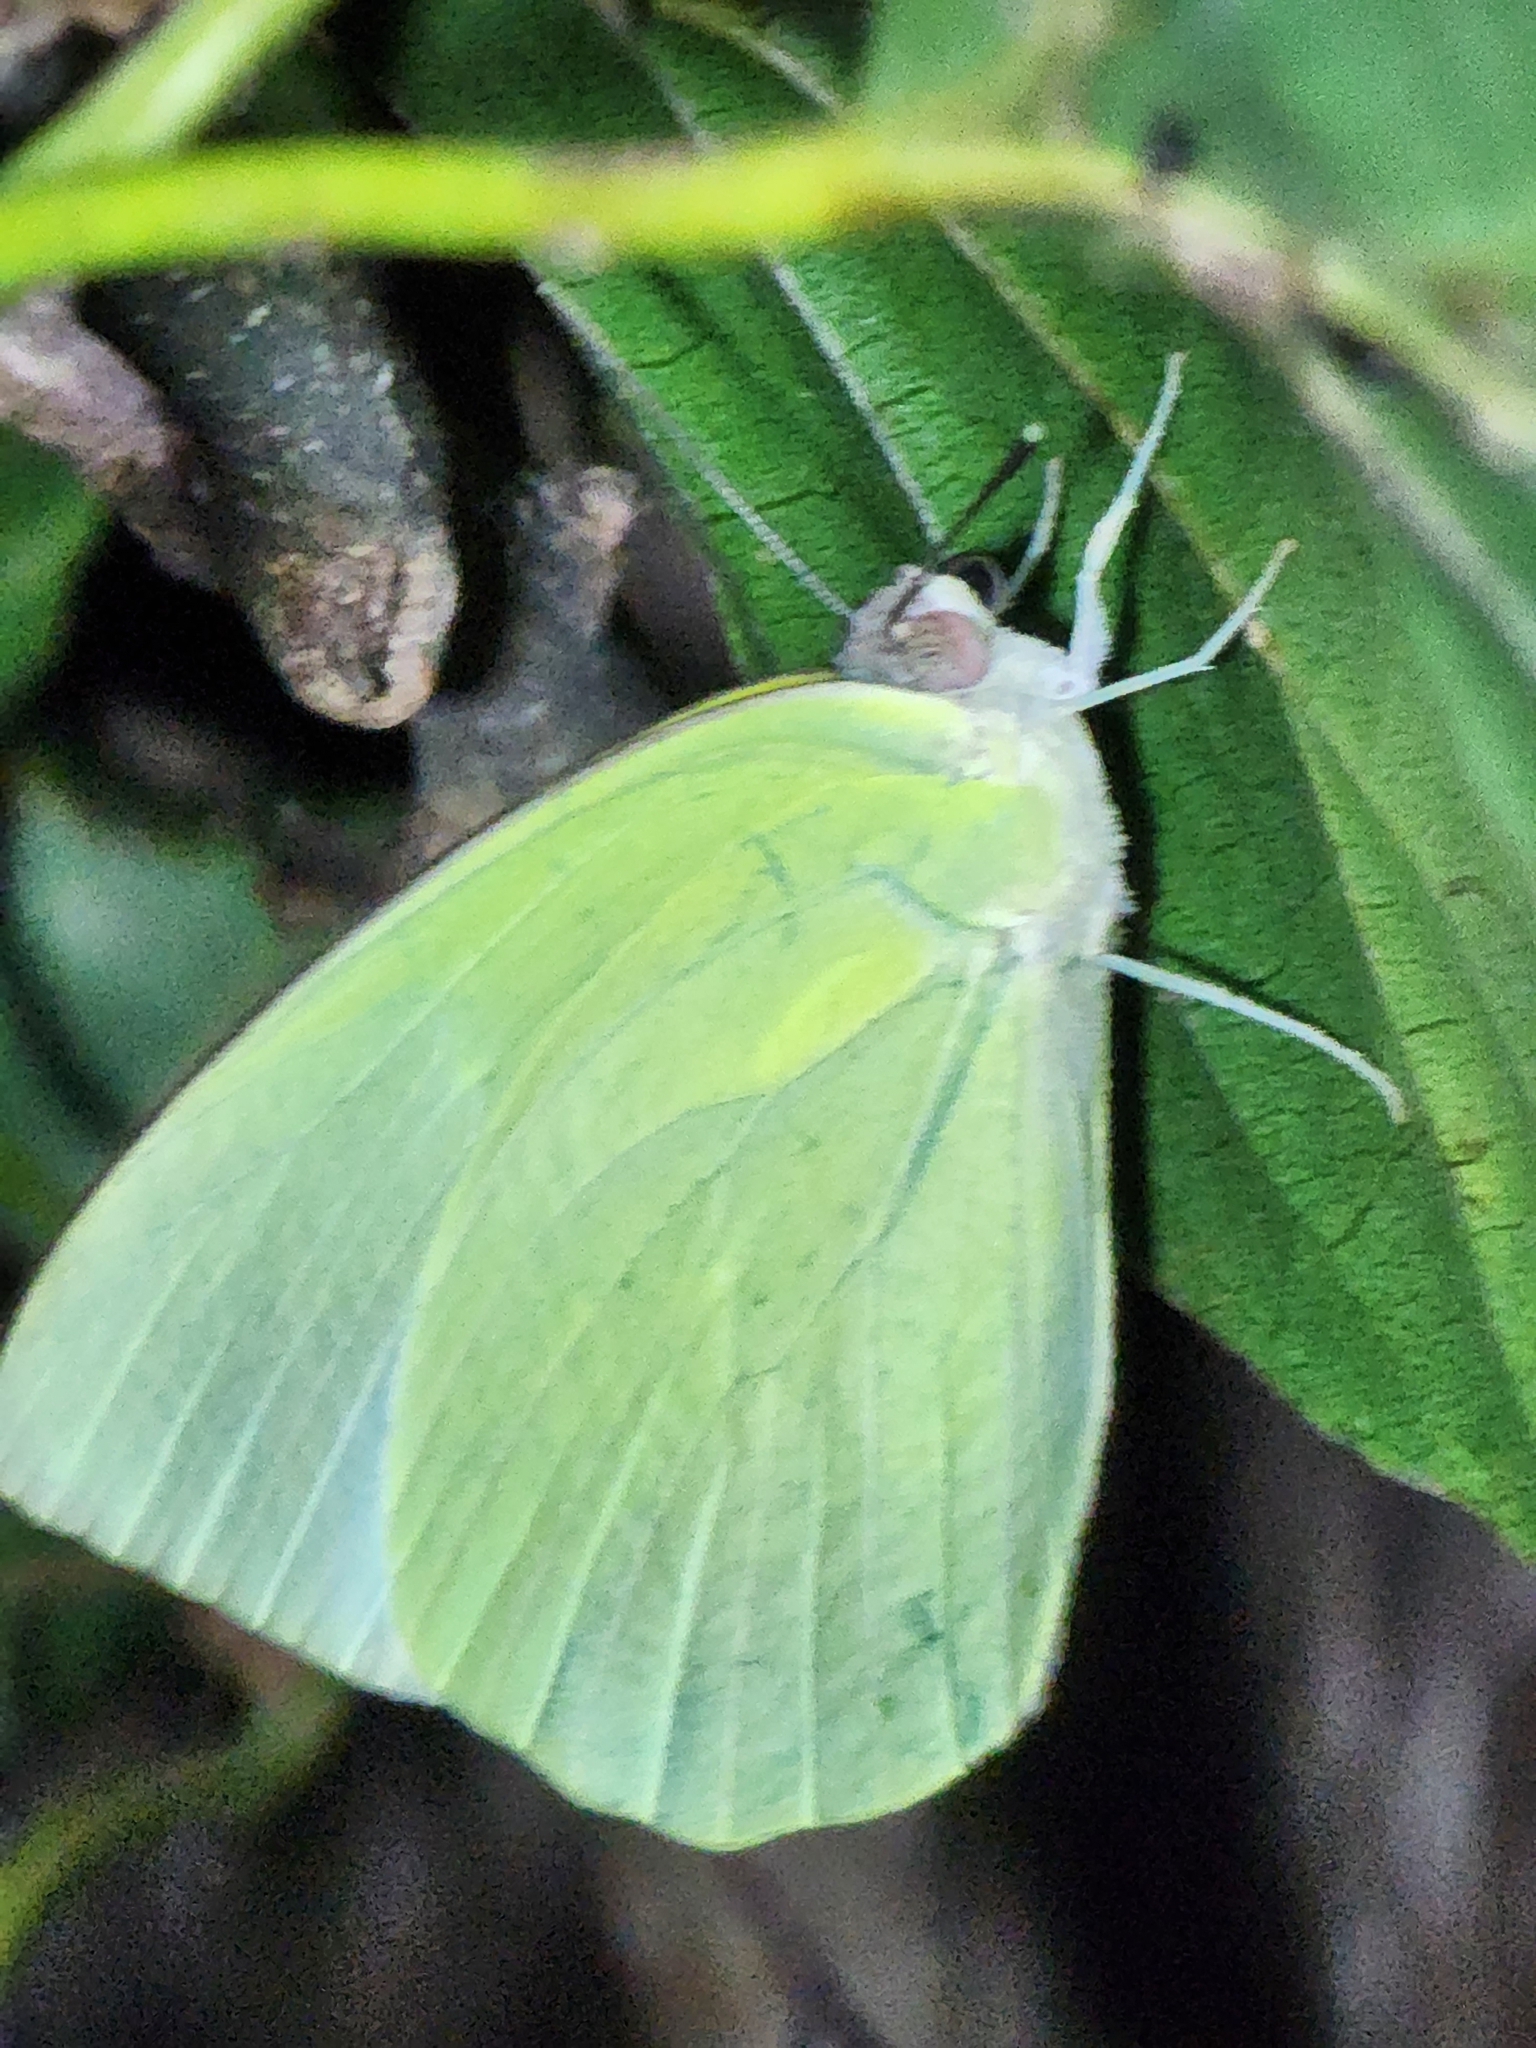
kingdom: Animalia
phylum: Arthropoda
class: Insecta
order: Lepidoptera
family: Pieridae
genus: Catopsilia
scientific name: Catopsilia pomona
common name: Common emigrant
